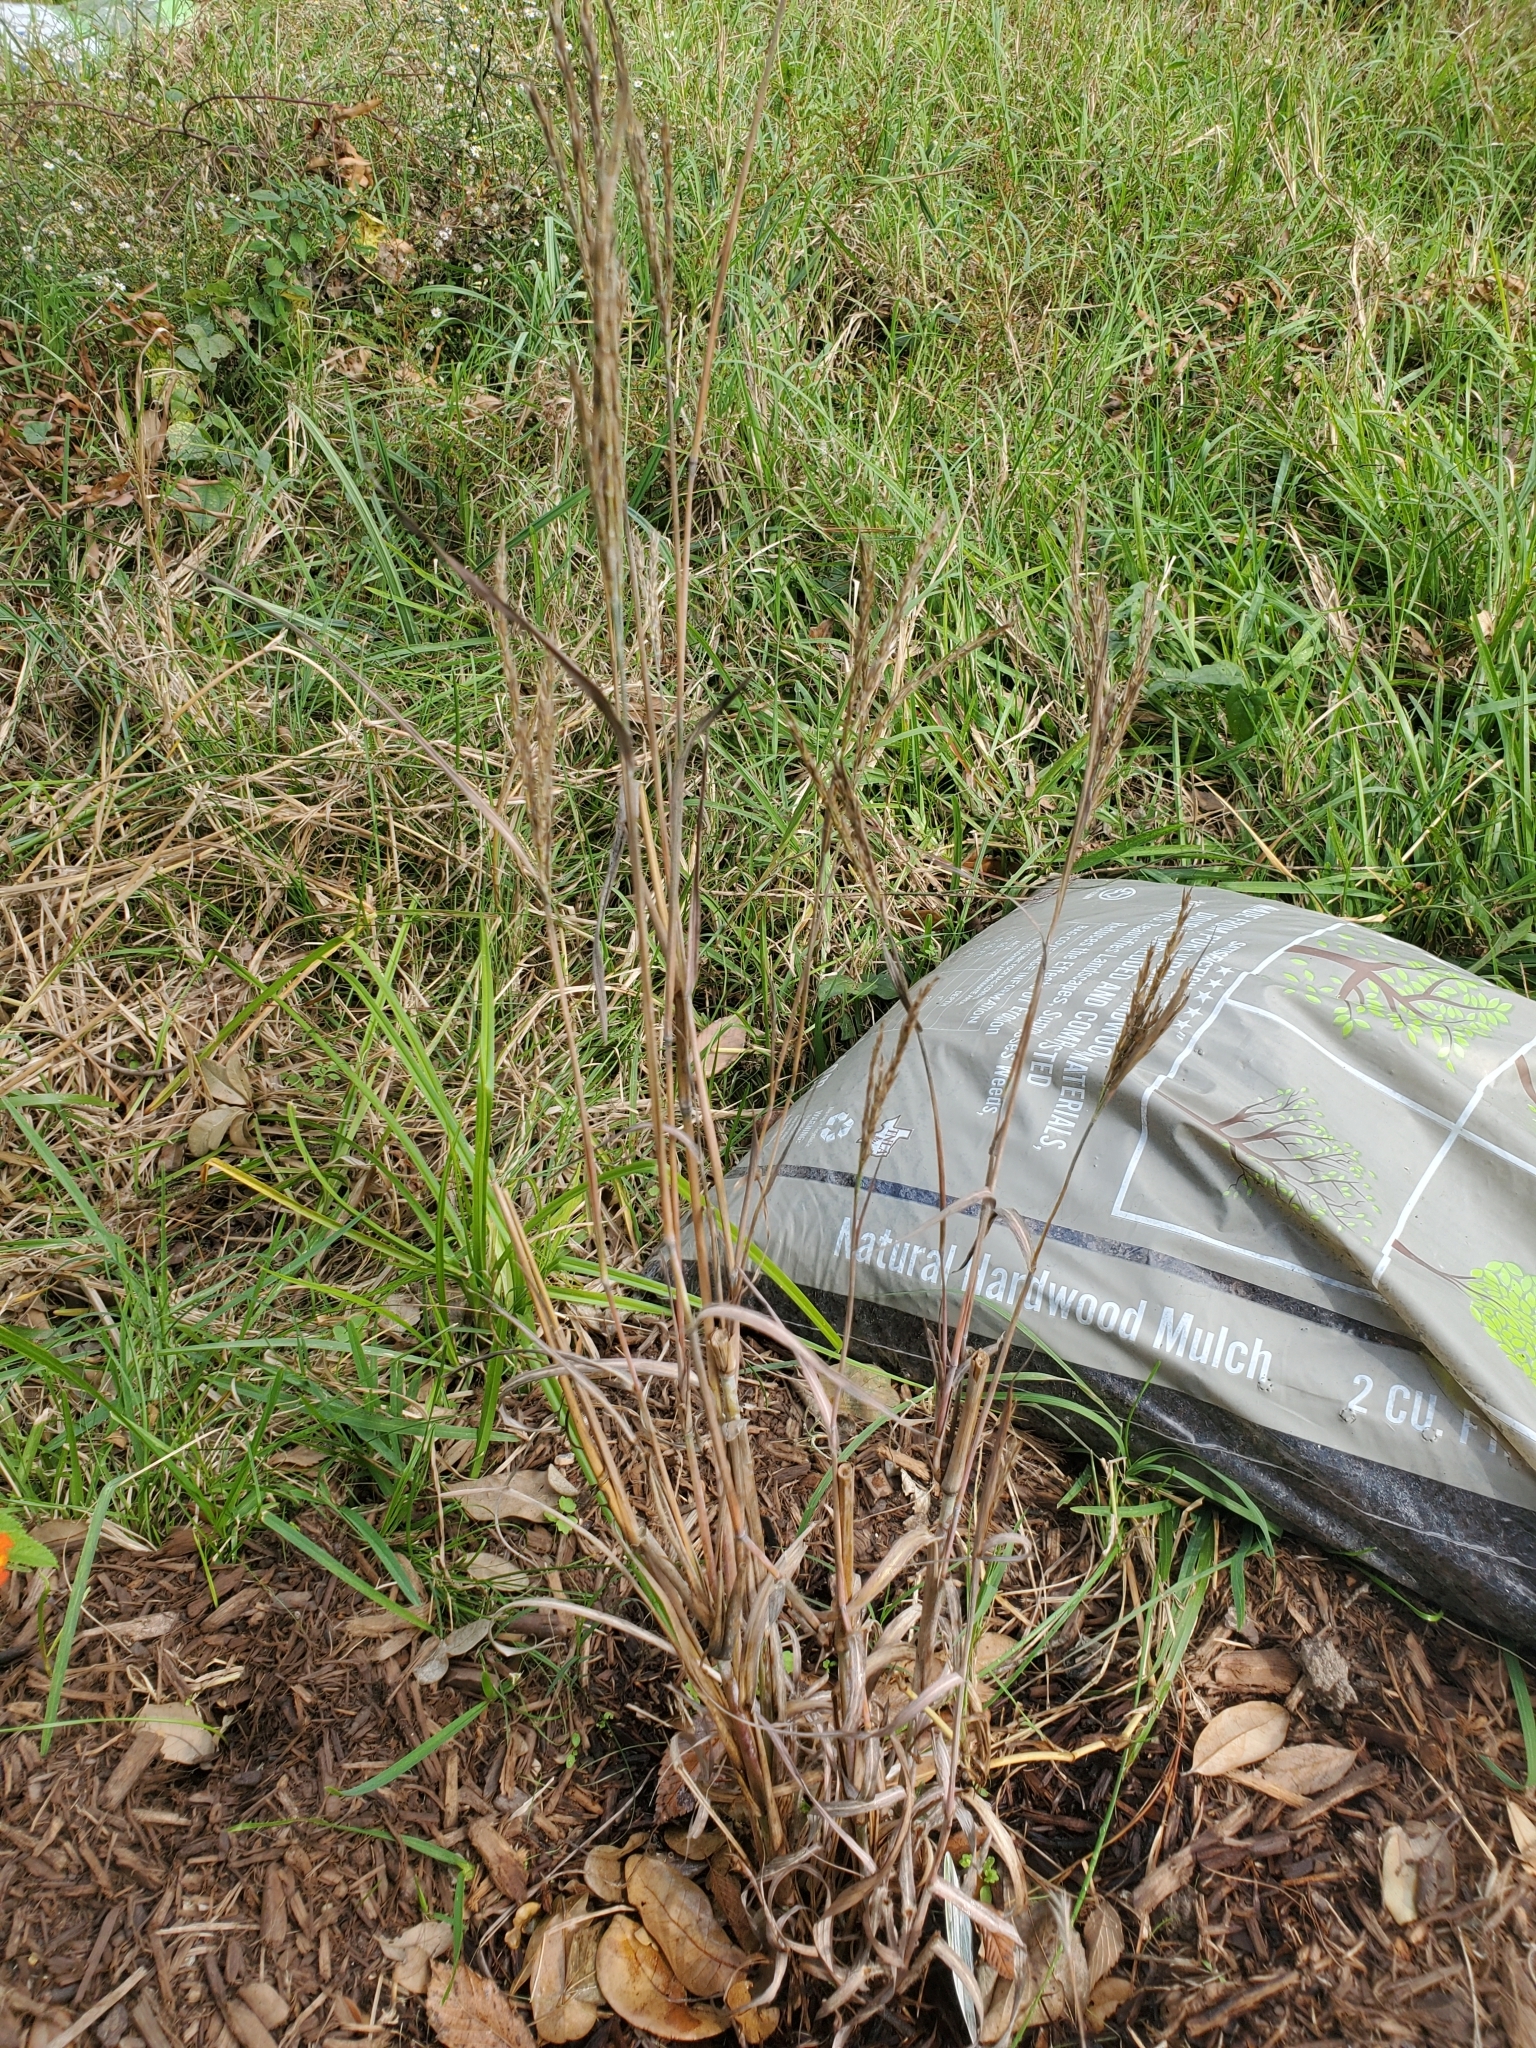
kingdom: Plantae
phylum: Tracheophyta
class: Liliopsida
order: Poales
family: Poaceae
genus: Andropogon
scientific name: Andropogon gerardi
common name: Big bluestem
